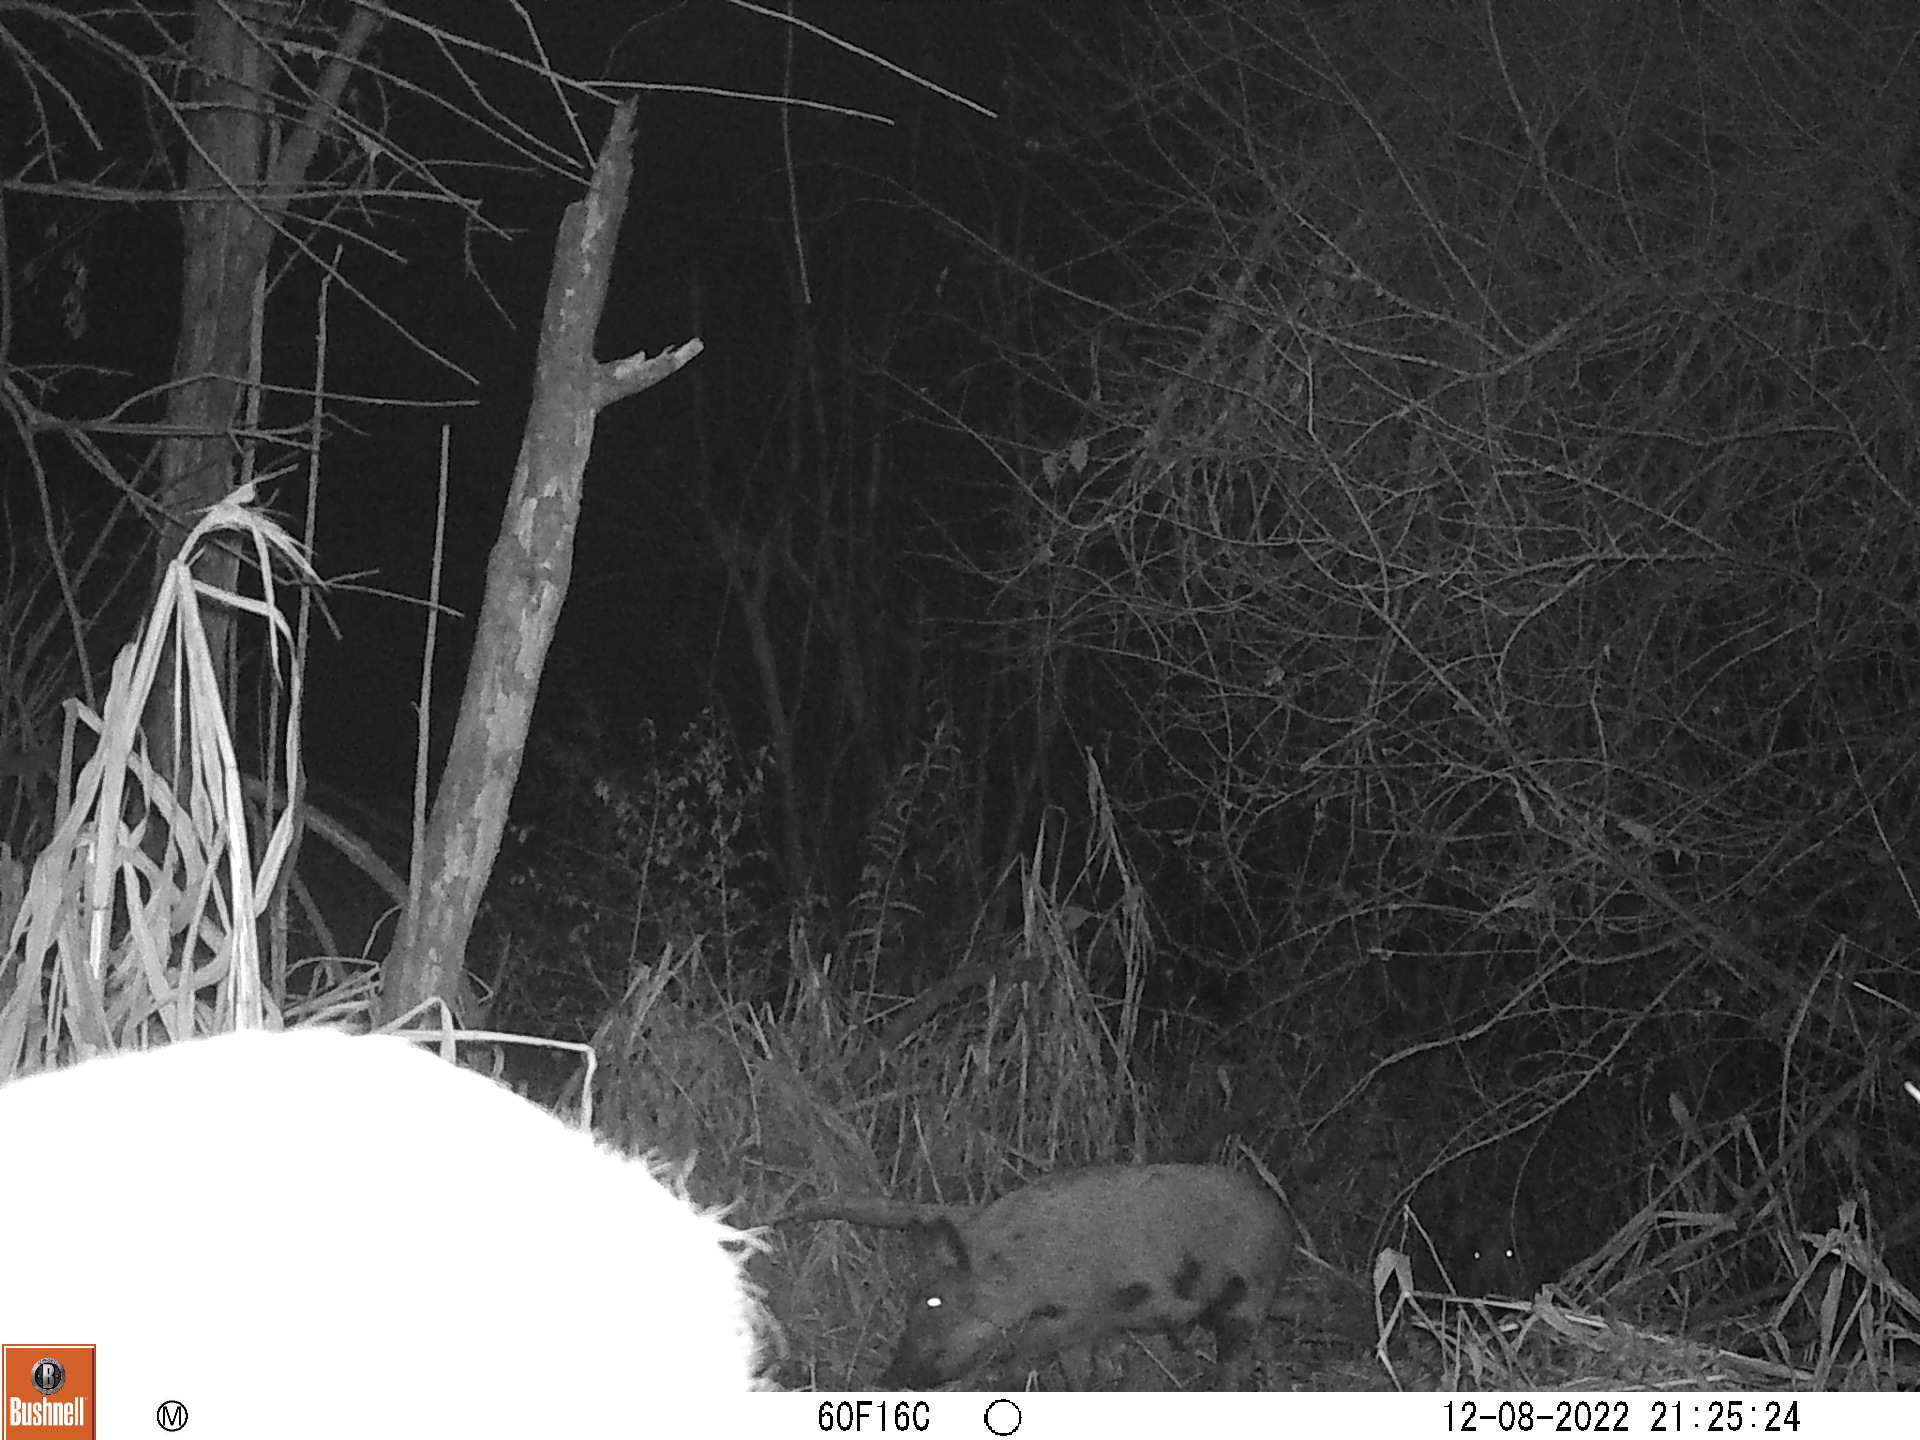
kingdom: Animalia
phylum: Chordata
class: Mammalia
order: Artiodactyla
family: Suidae
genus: Sus
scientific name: Sus scrofa
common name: Wild boar
